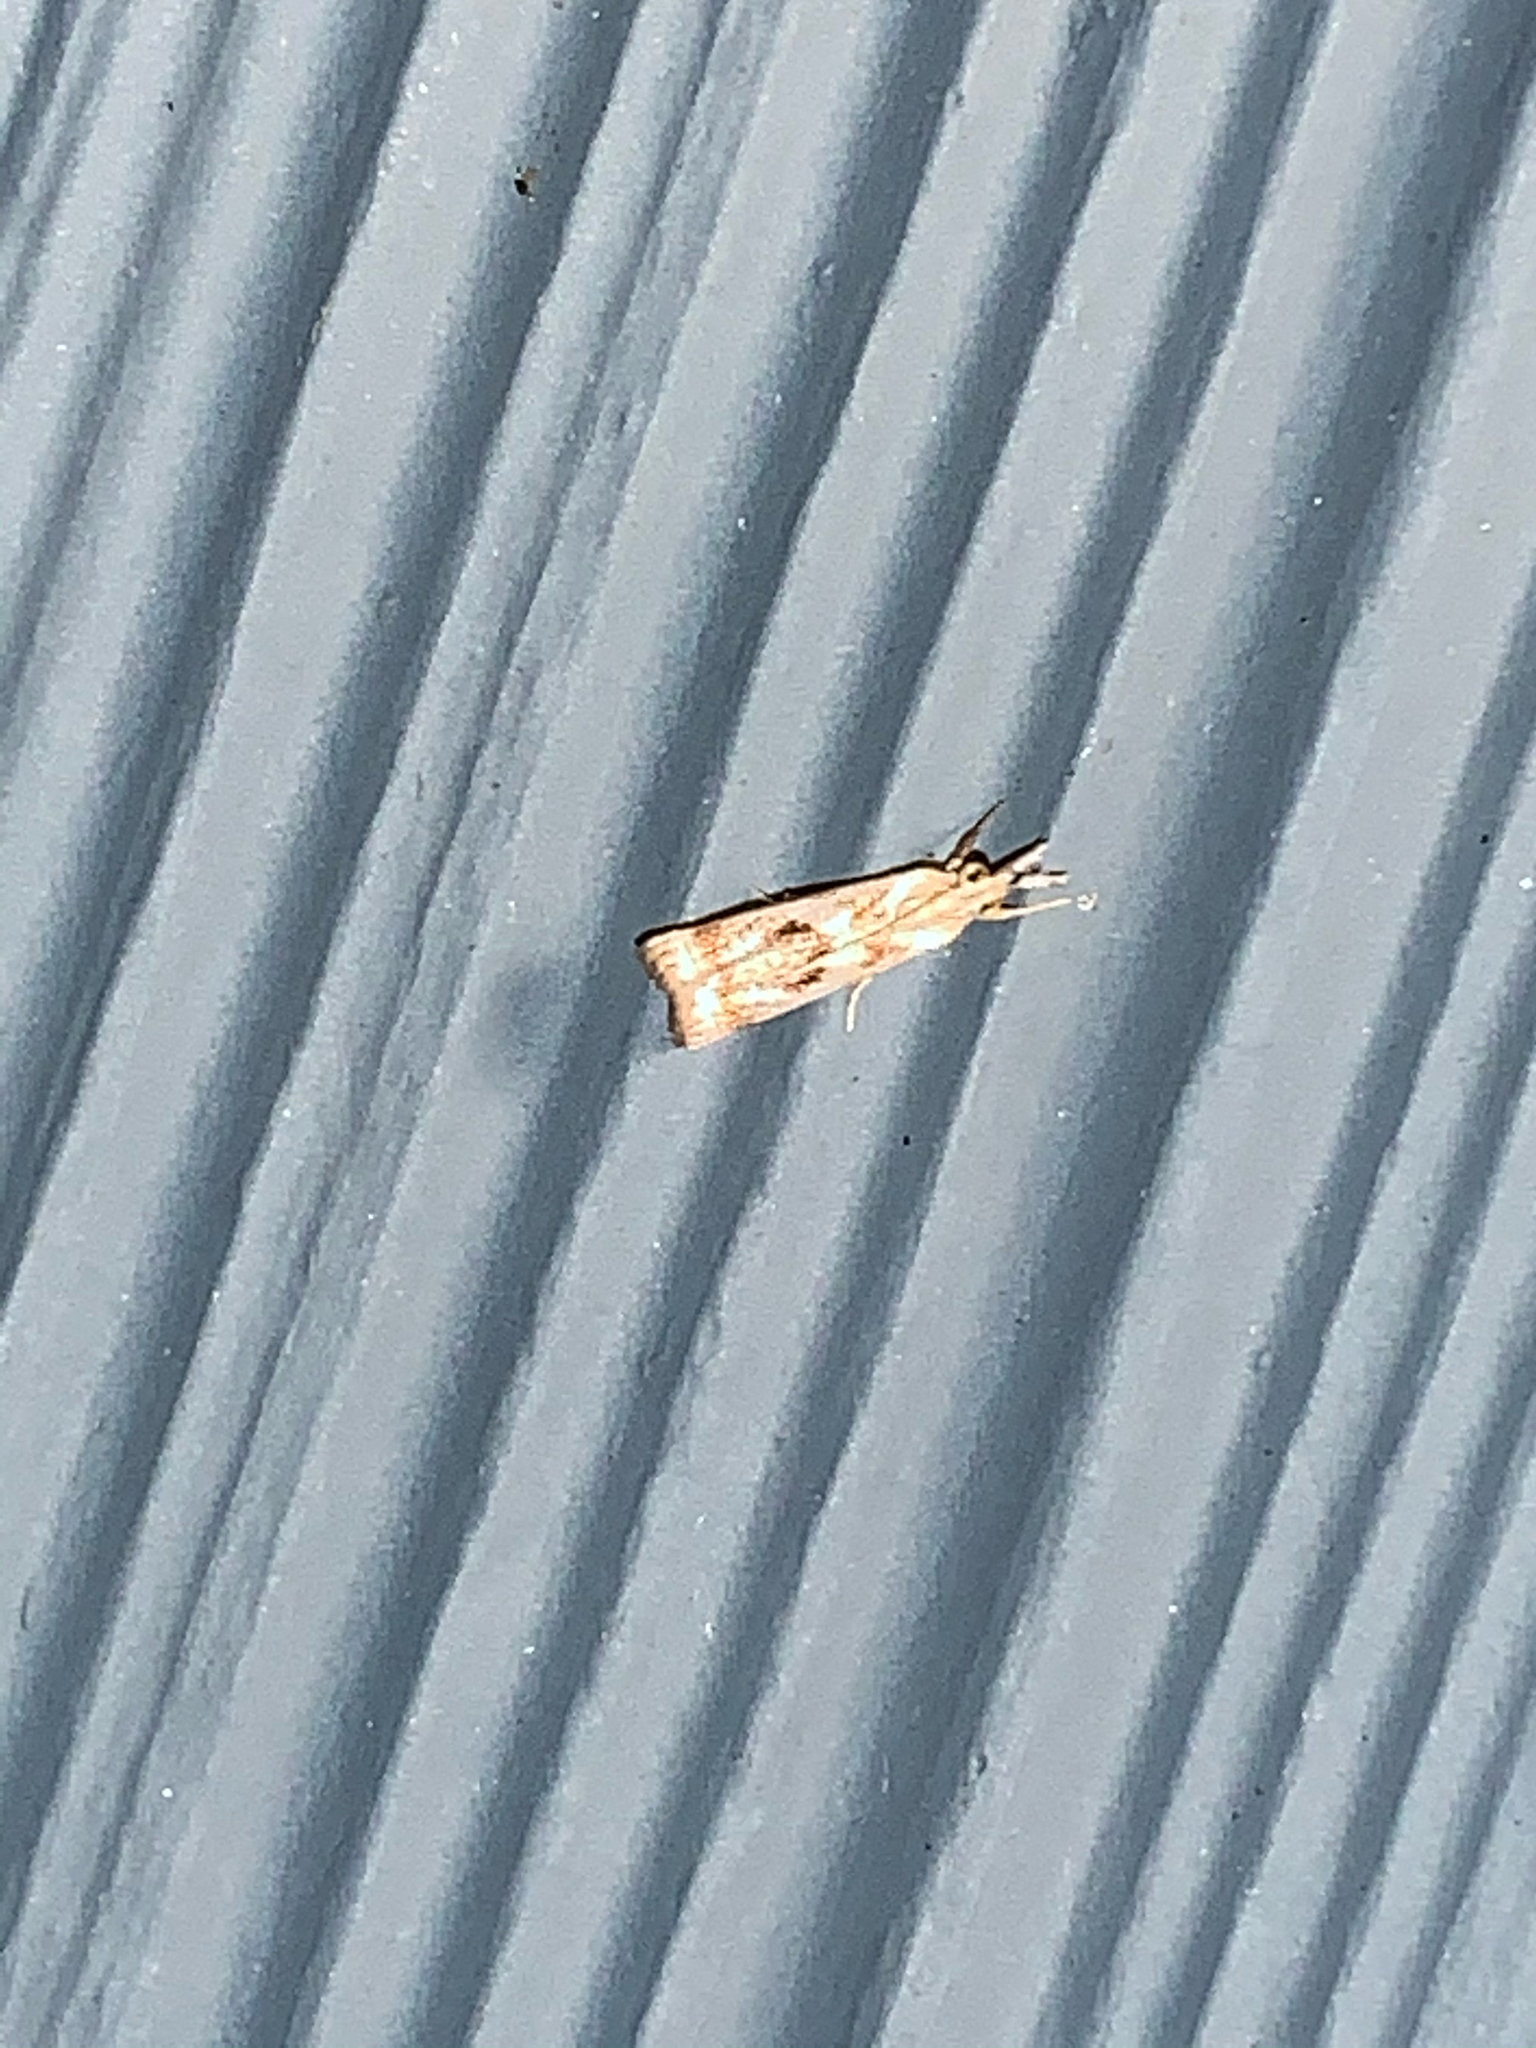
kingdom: Animalia
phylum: Arthropoda
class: Insecta
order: Lepidoptera
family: Crambidae
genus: Microcrambus
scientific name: Microcrambus elegans
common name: Elegant grass-veneer
